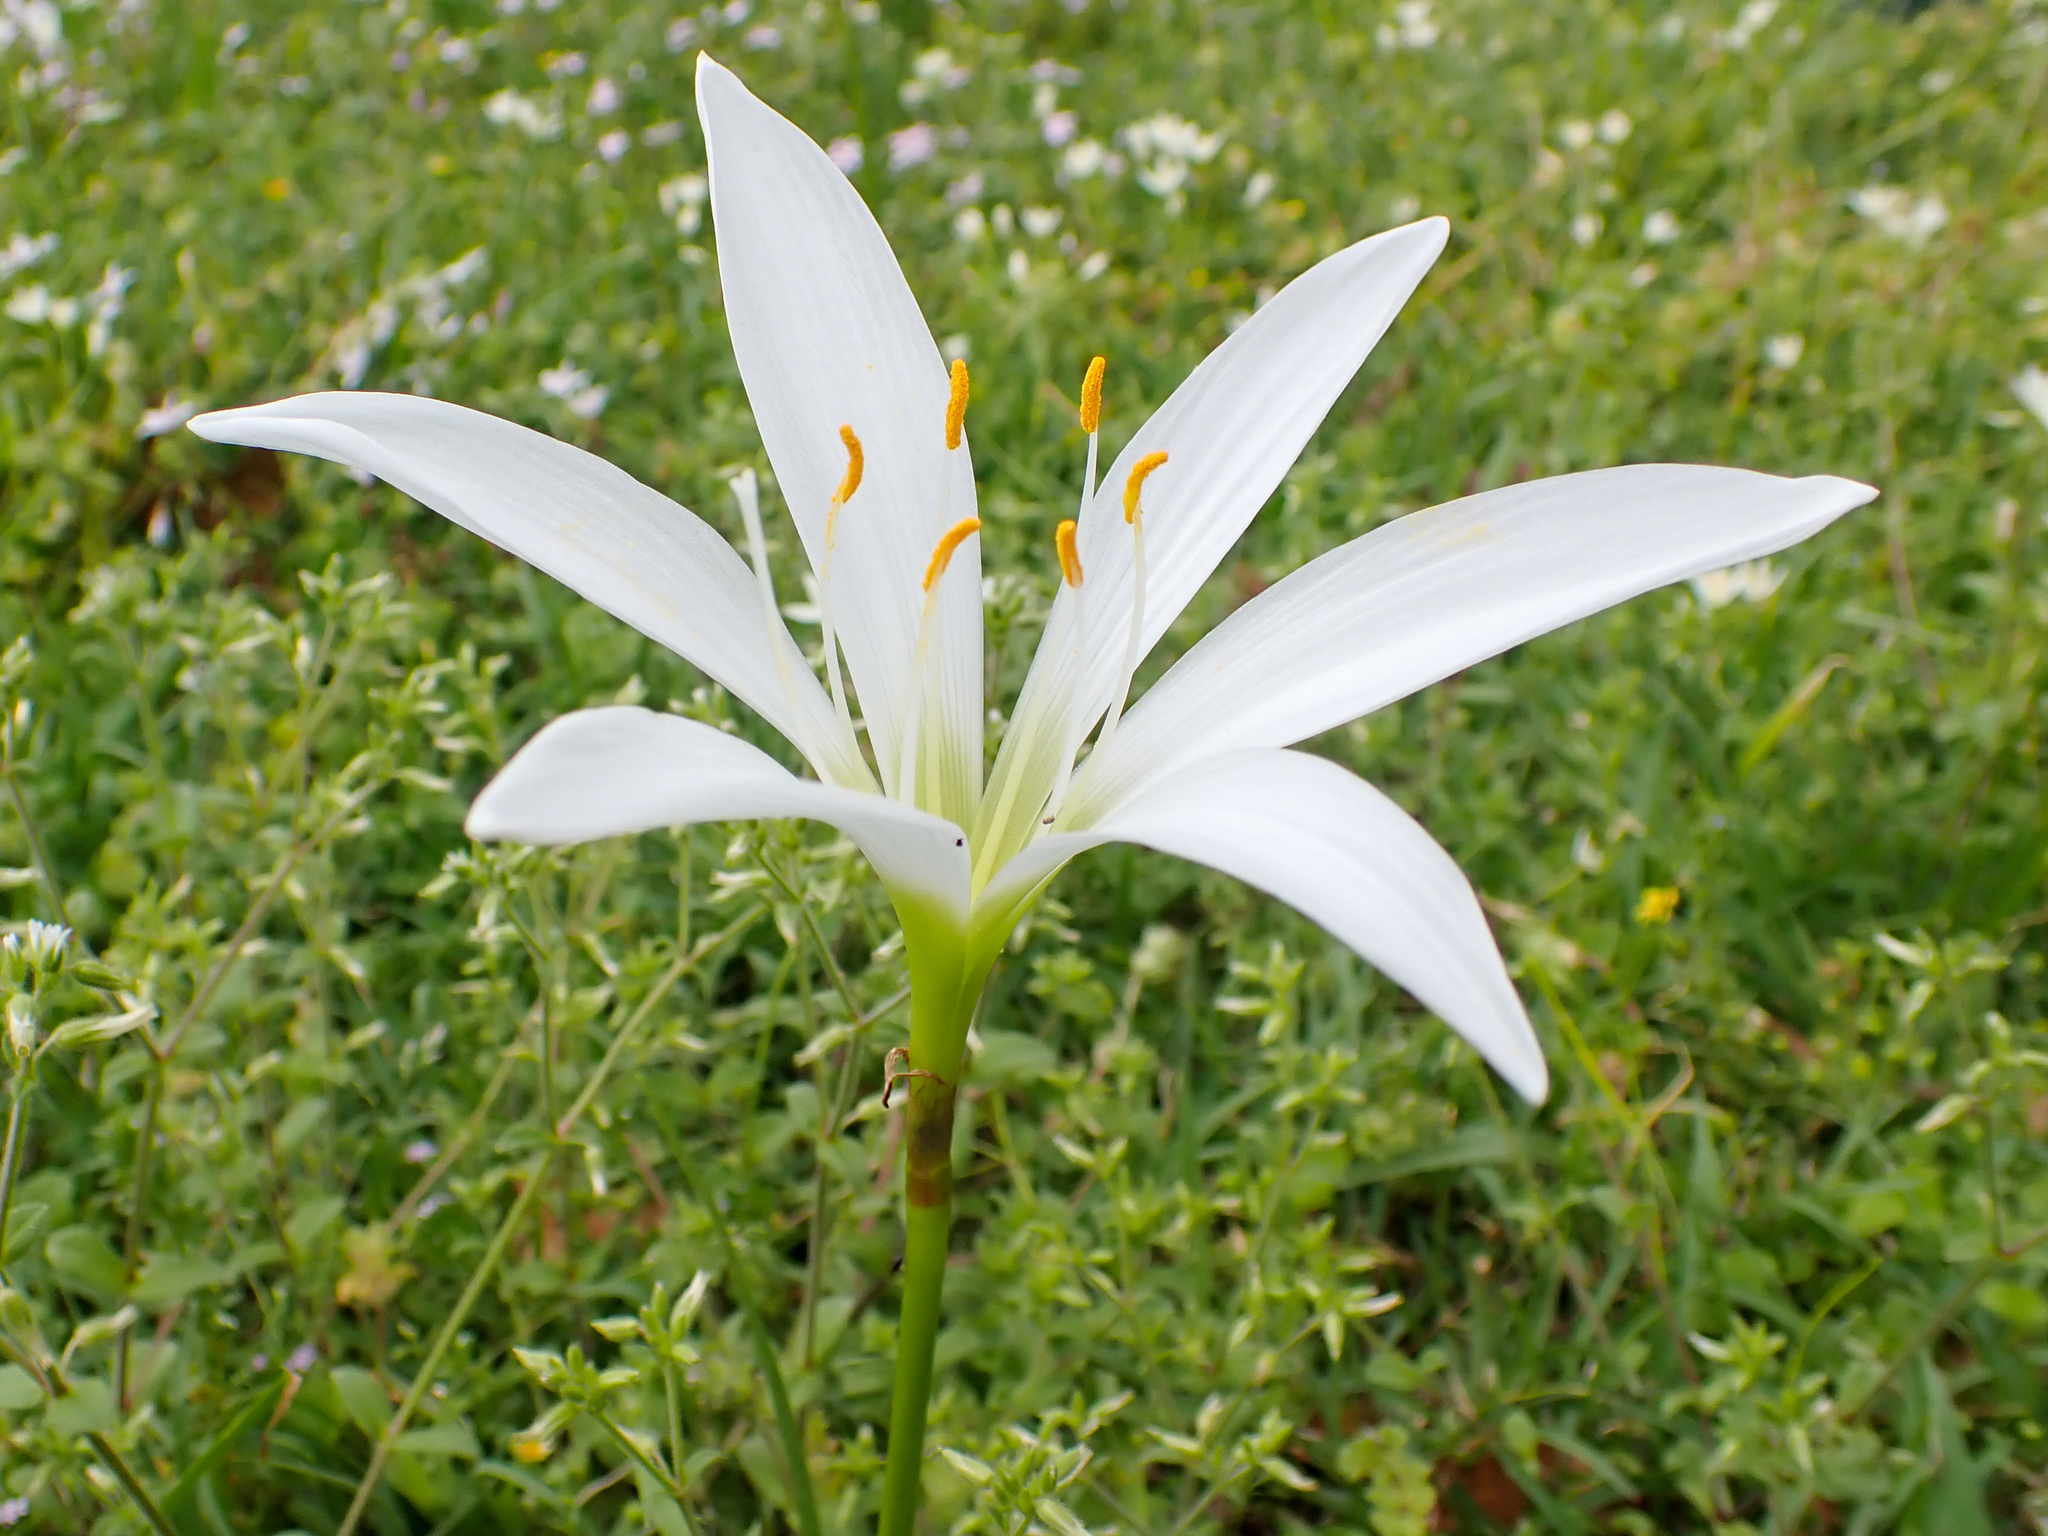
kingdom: Plantae
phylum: Tracheophyta
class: Liliopsida
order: Asparagales
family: Amaryllidaceae
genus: Zephyranthes
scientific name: Zephyranthes atamasco
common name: Atamasco lily
